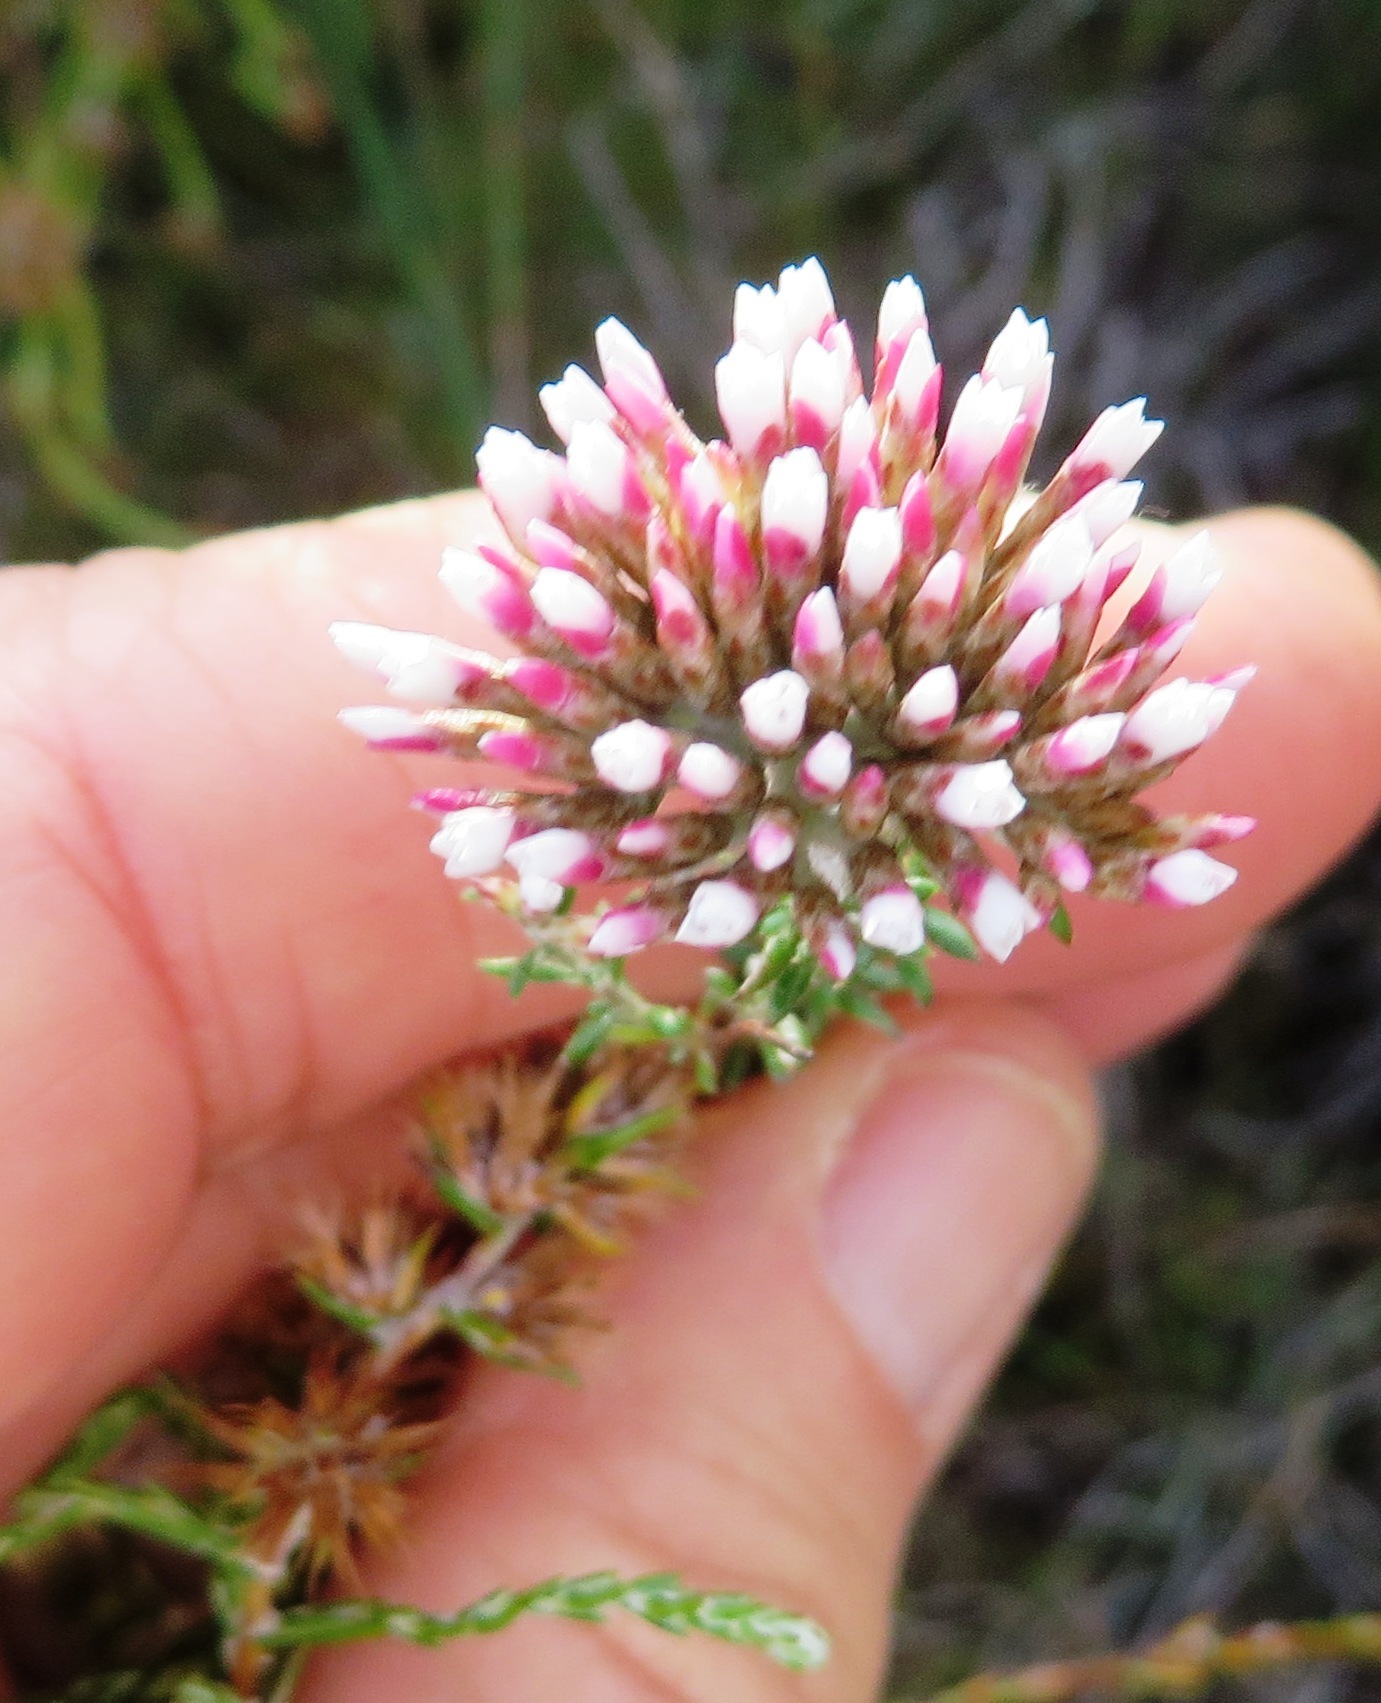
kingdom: Plantae
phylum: Tracheophyta
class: Magnoliopsida
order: Asterales
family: Asteraceae
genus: Metalasia
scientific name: Metalasia erubescens
